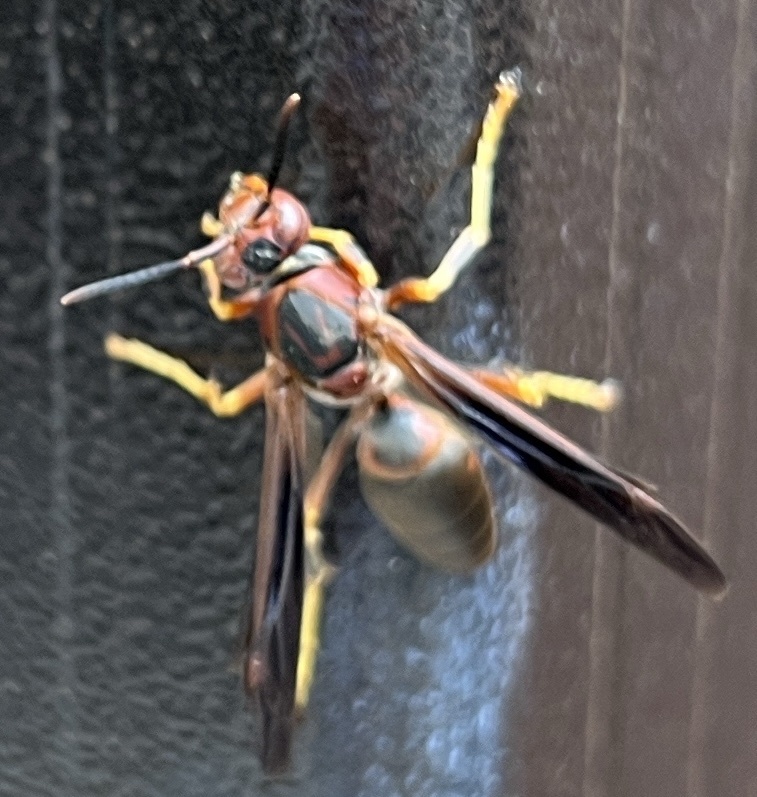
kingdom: Animalia
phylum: Arthropoda
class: Insecta
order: Hymenoptera
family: Eumenidae
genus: Polistes
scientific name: Polistes metricus
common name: Metric paper wasp
